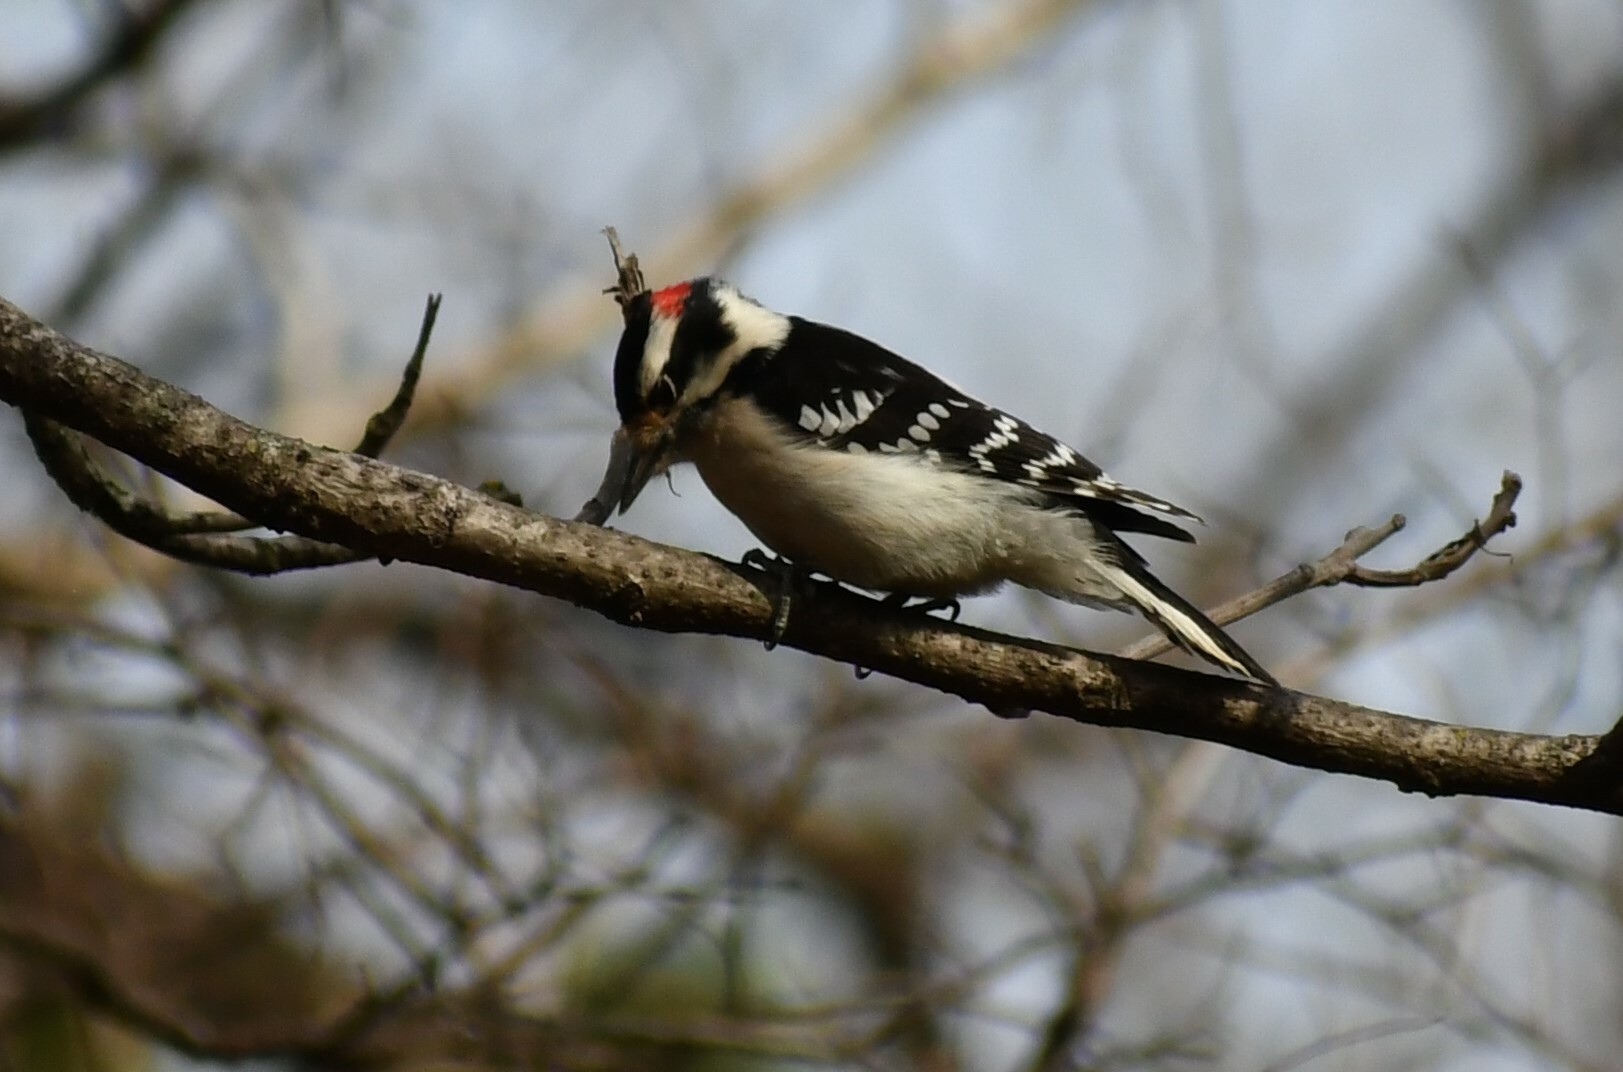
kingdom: Animalia
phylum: Chordata
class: Aves
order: Piciformes
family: Picidae
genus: Dryobates
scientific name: Dryobates pubescens
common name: Downy woodpecker
